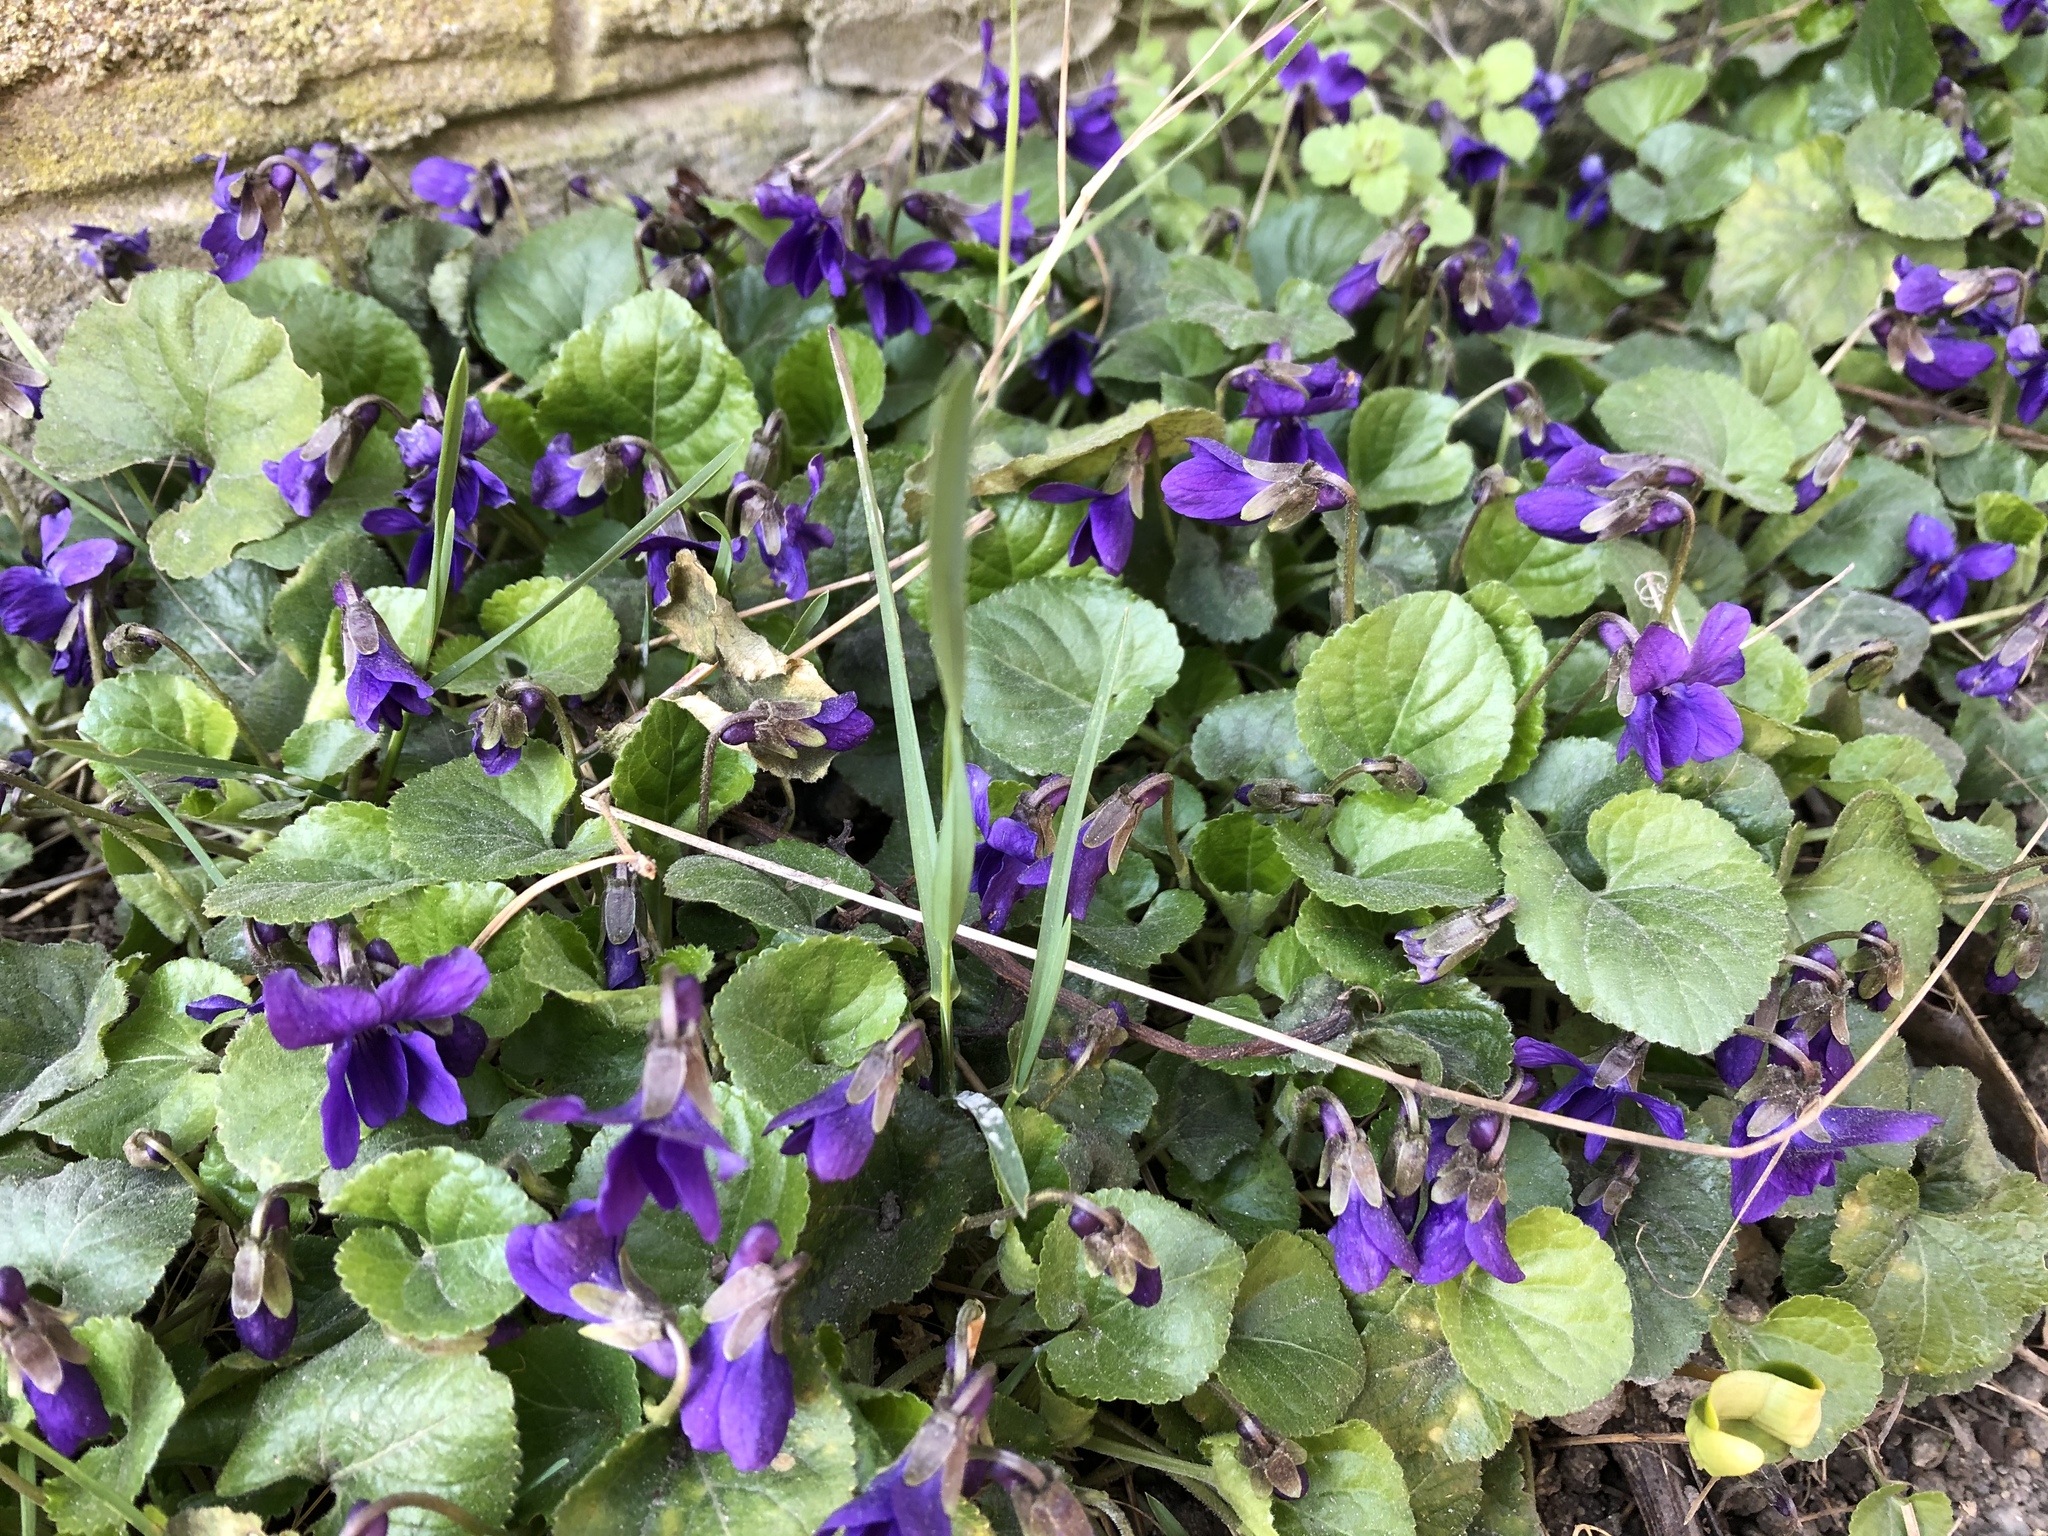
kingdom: Plantae
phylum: Tracheophyta
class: Magnoliopsida
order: Malpighiales
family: Violaceae
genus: Viola
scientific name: Viola odorata
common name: Sweet violet
